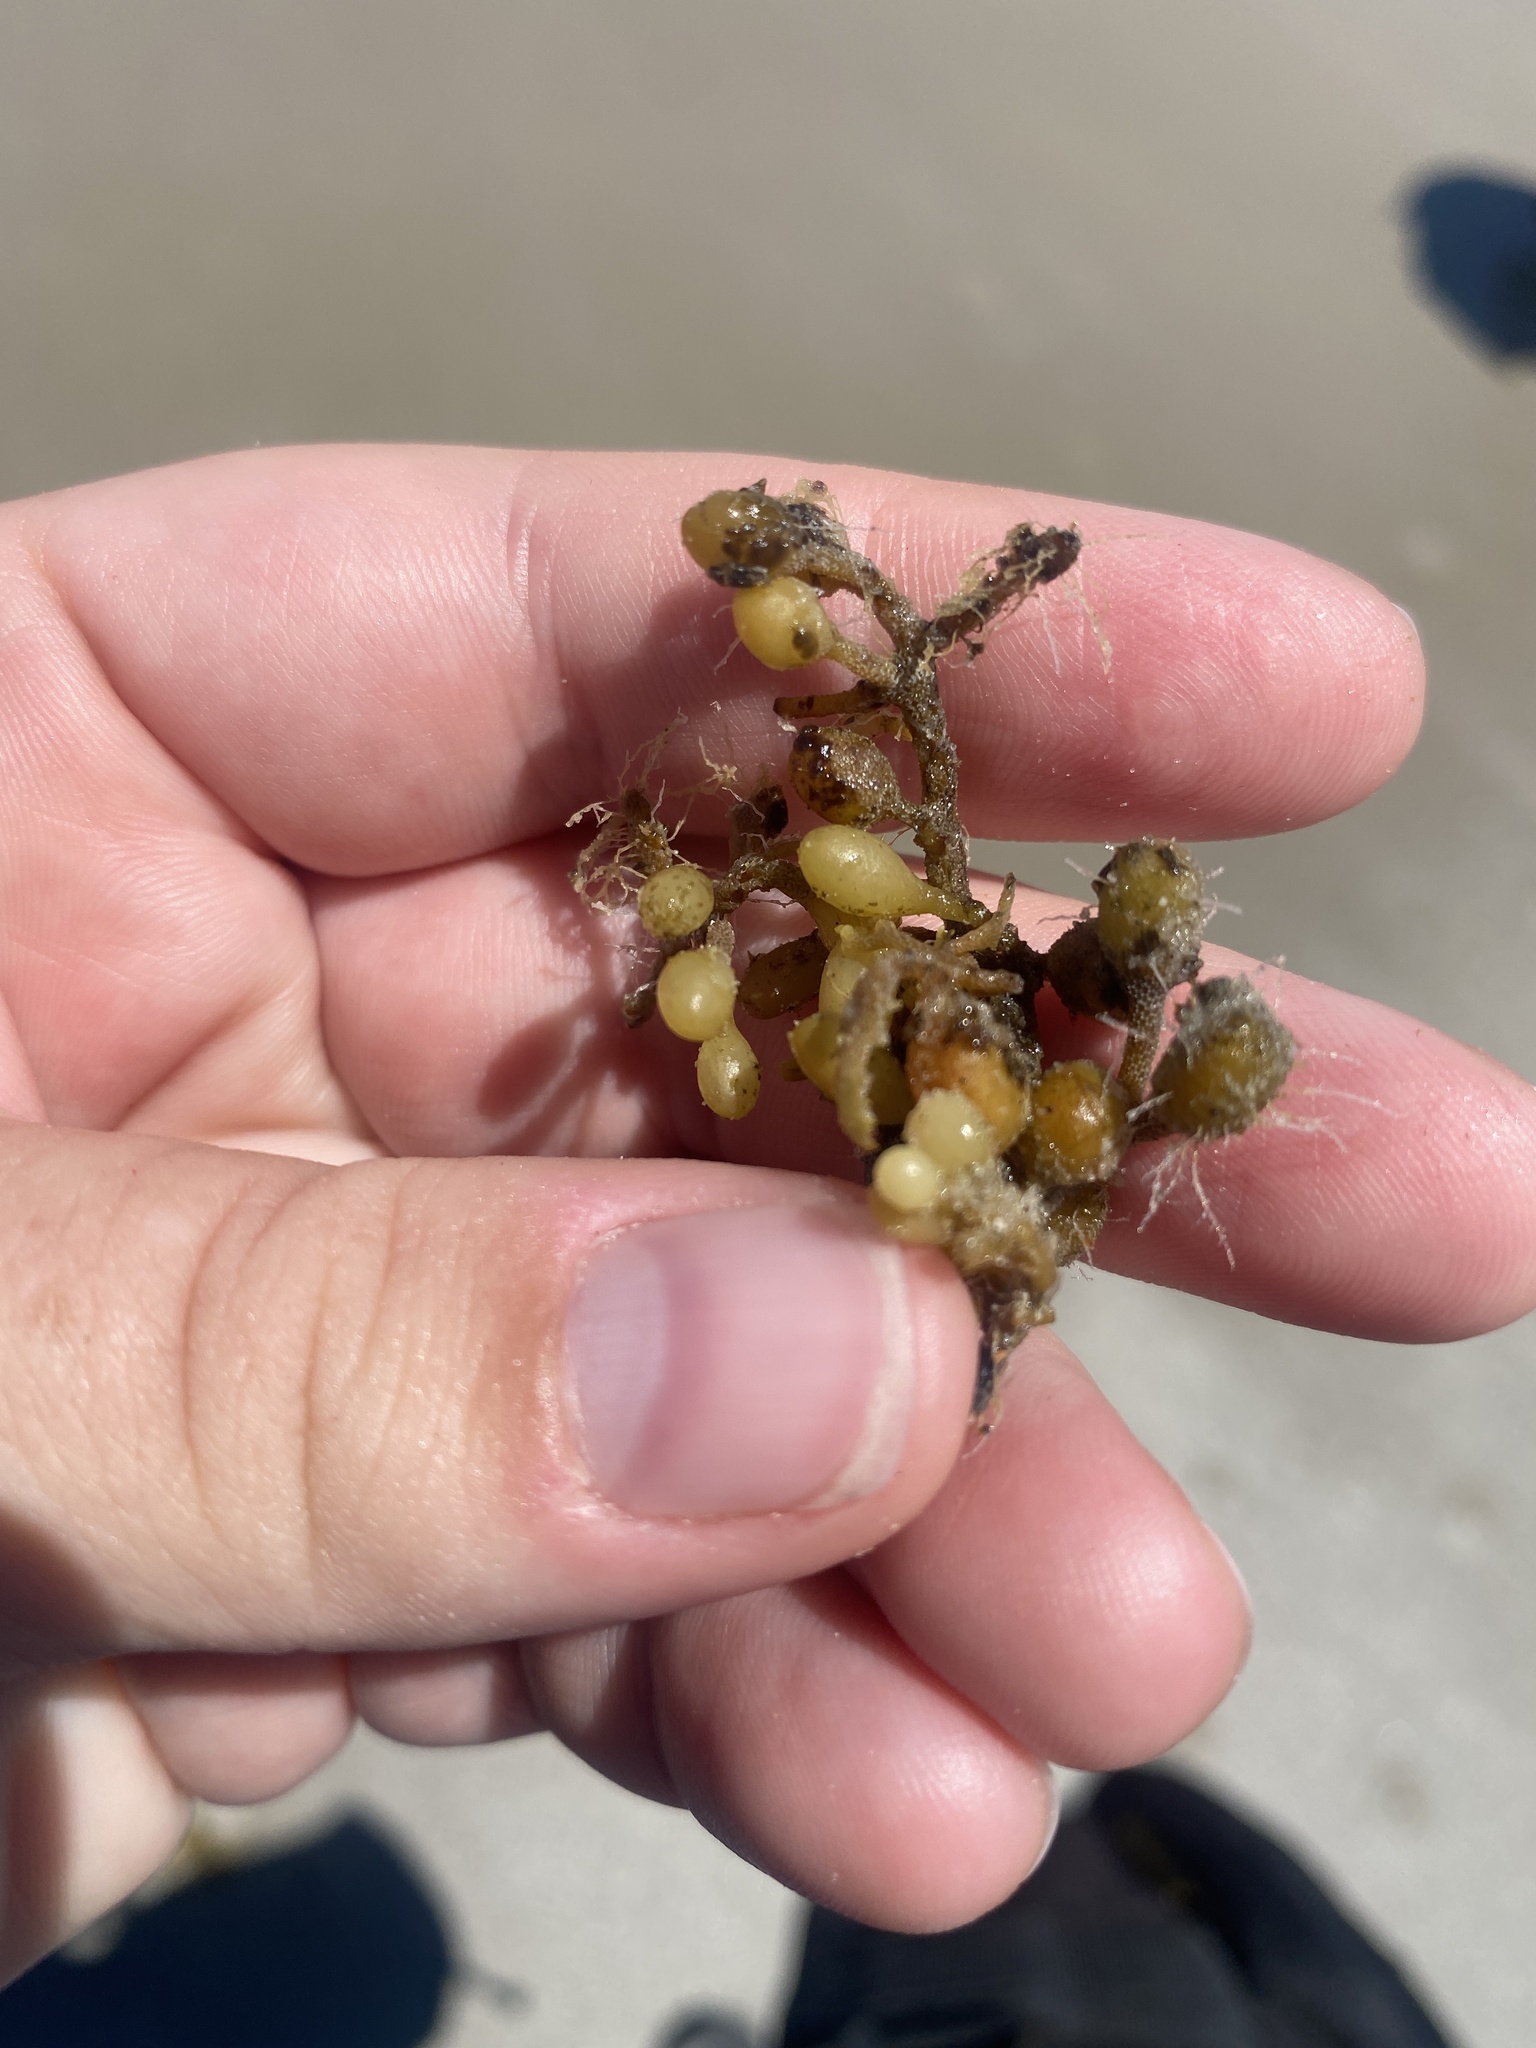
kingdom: Chromista
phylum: Ochrophyta
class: Phaeophyceae
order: Fucales
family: Sargassaceae
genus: Sargassum
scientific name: Sargassum fluitans
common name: Sargassum seaweed
